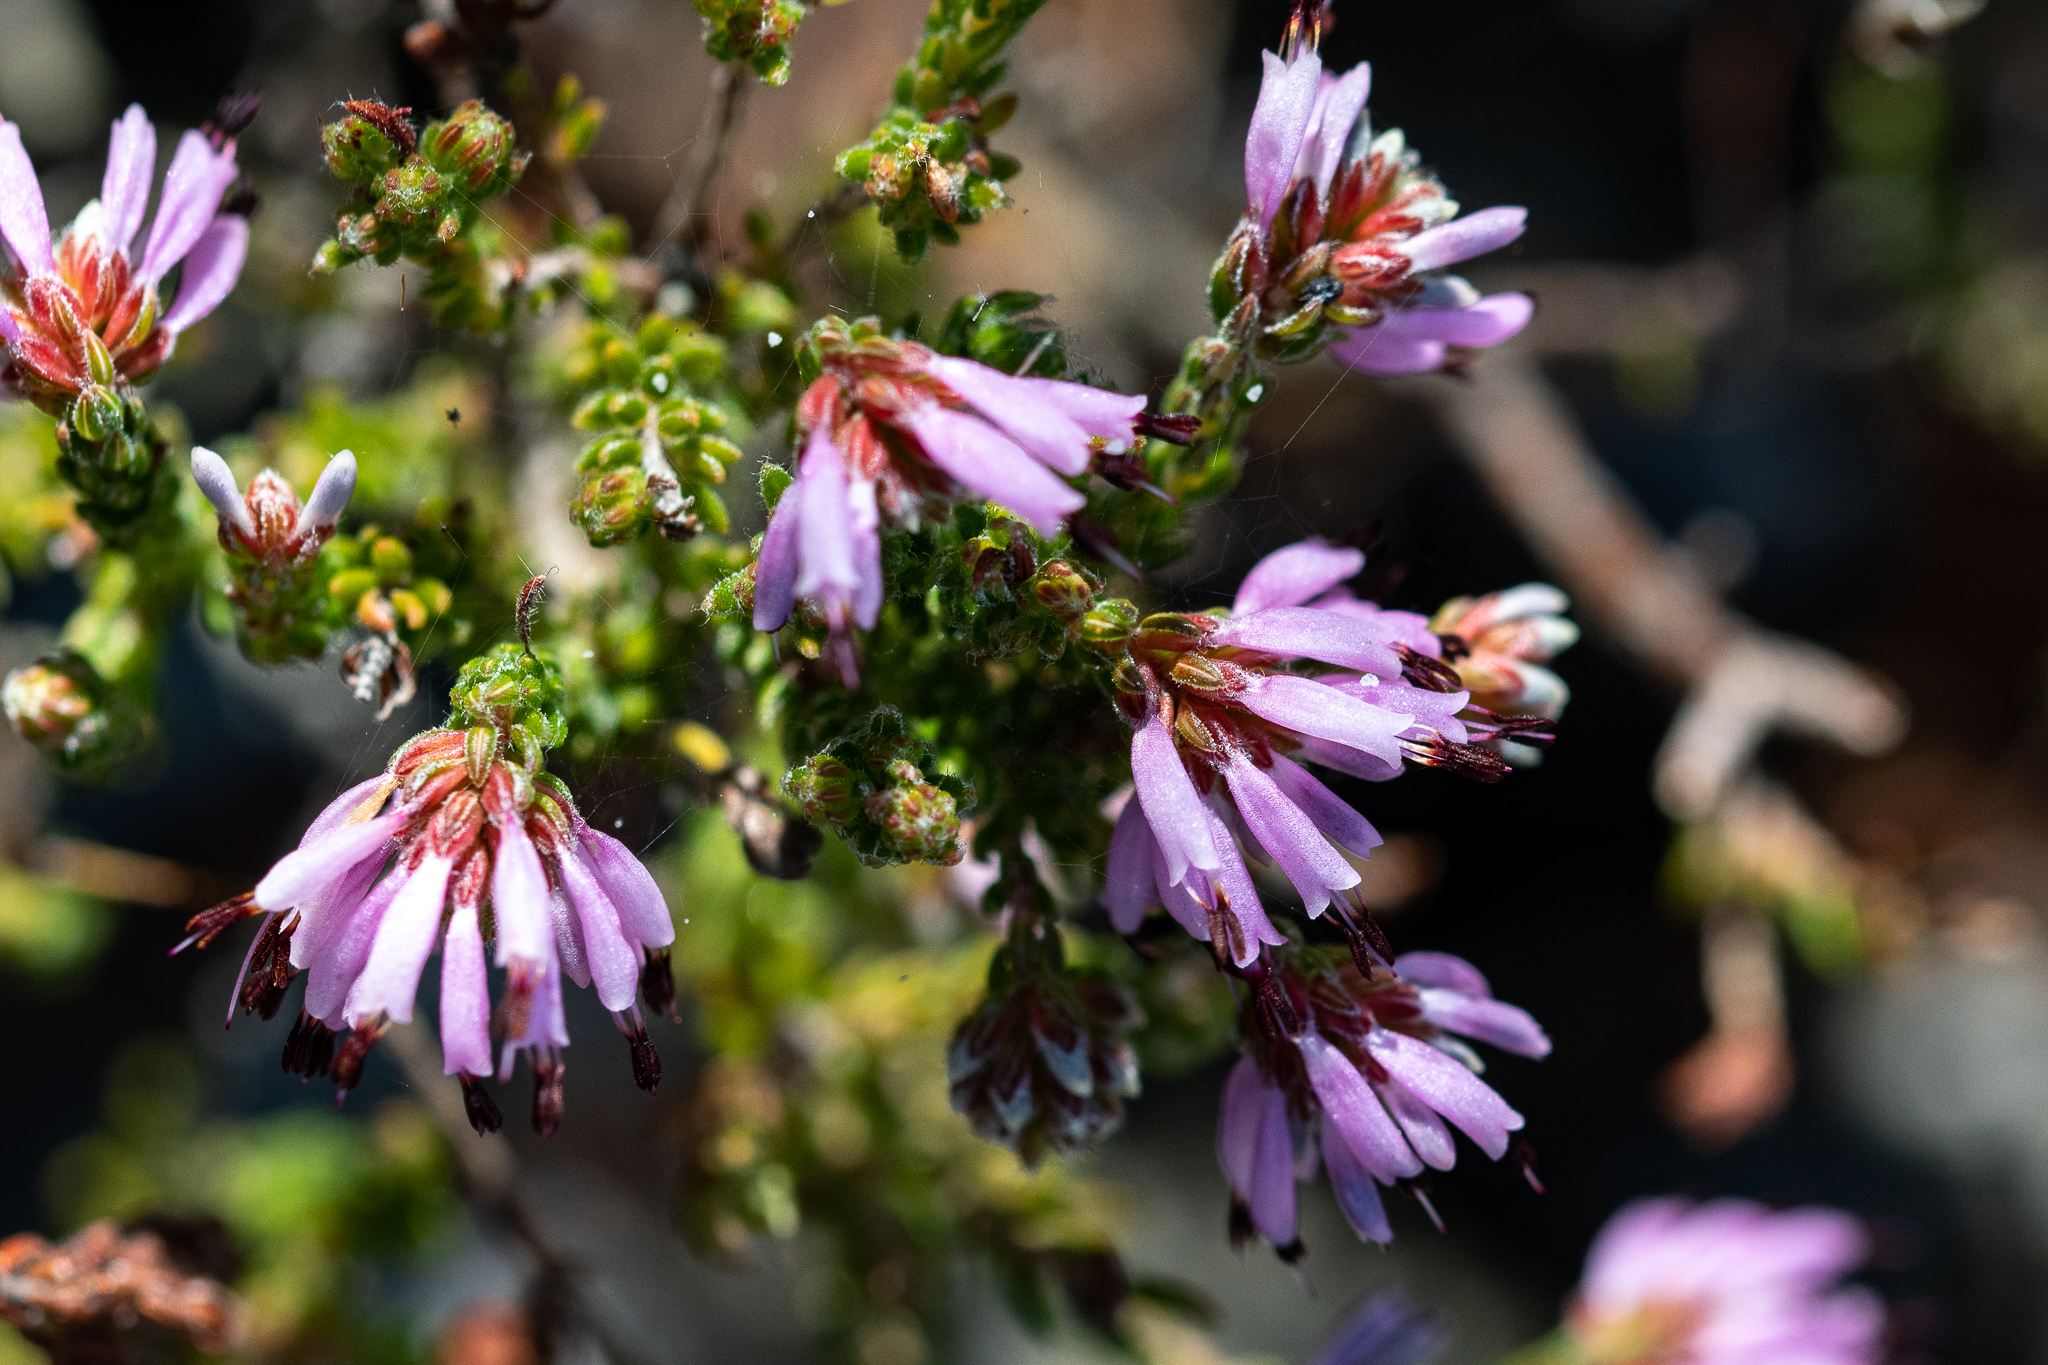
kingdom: Plantae
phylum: Tracheophyta
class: Magnoliopsida
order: Ericales
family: Ericaceae
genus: Erica
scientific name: Erica labialis
